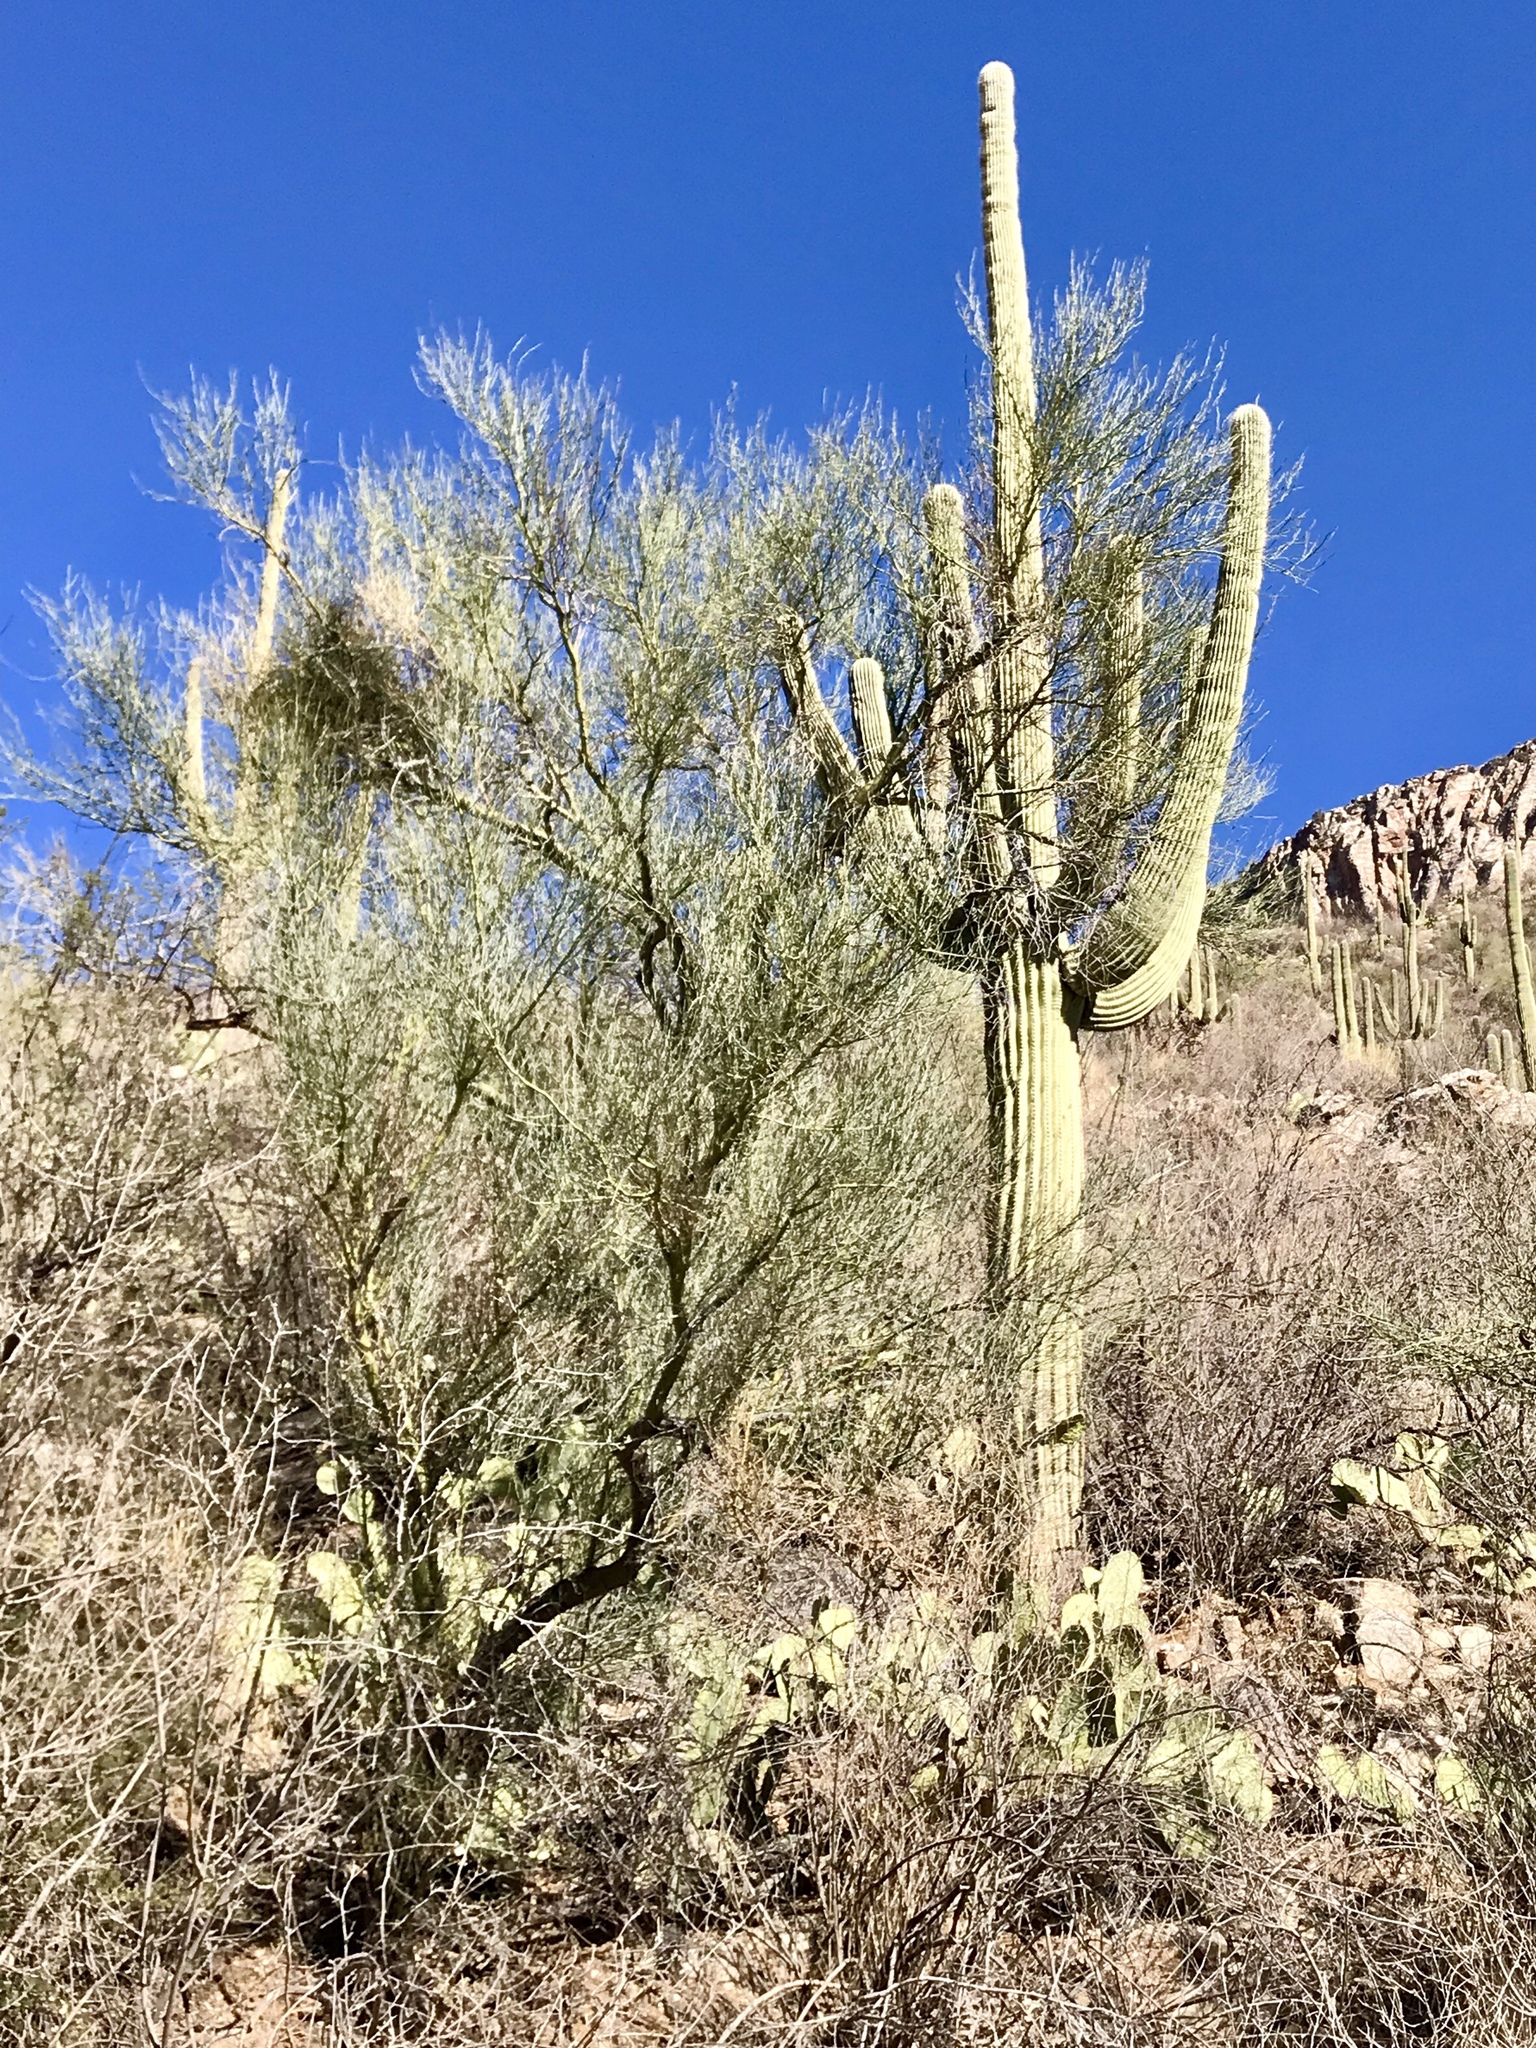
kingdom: Plantae
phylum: Tracheophyta
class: Magnoliopsida
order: Fabales
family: Fabaceae
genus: Parkinsonia
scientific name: Parkinsonia microphylla
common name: Yellow paloverde
